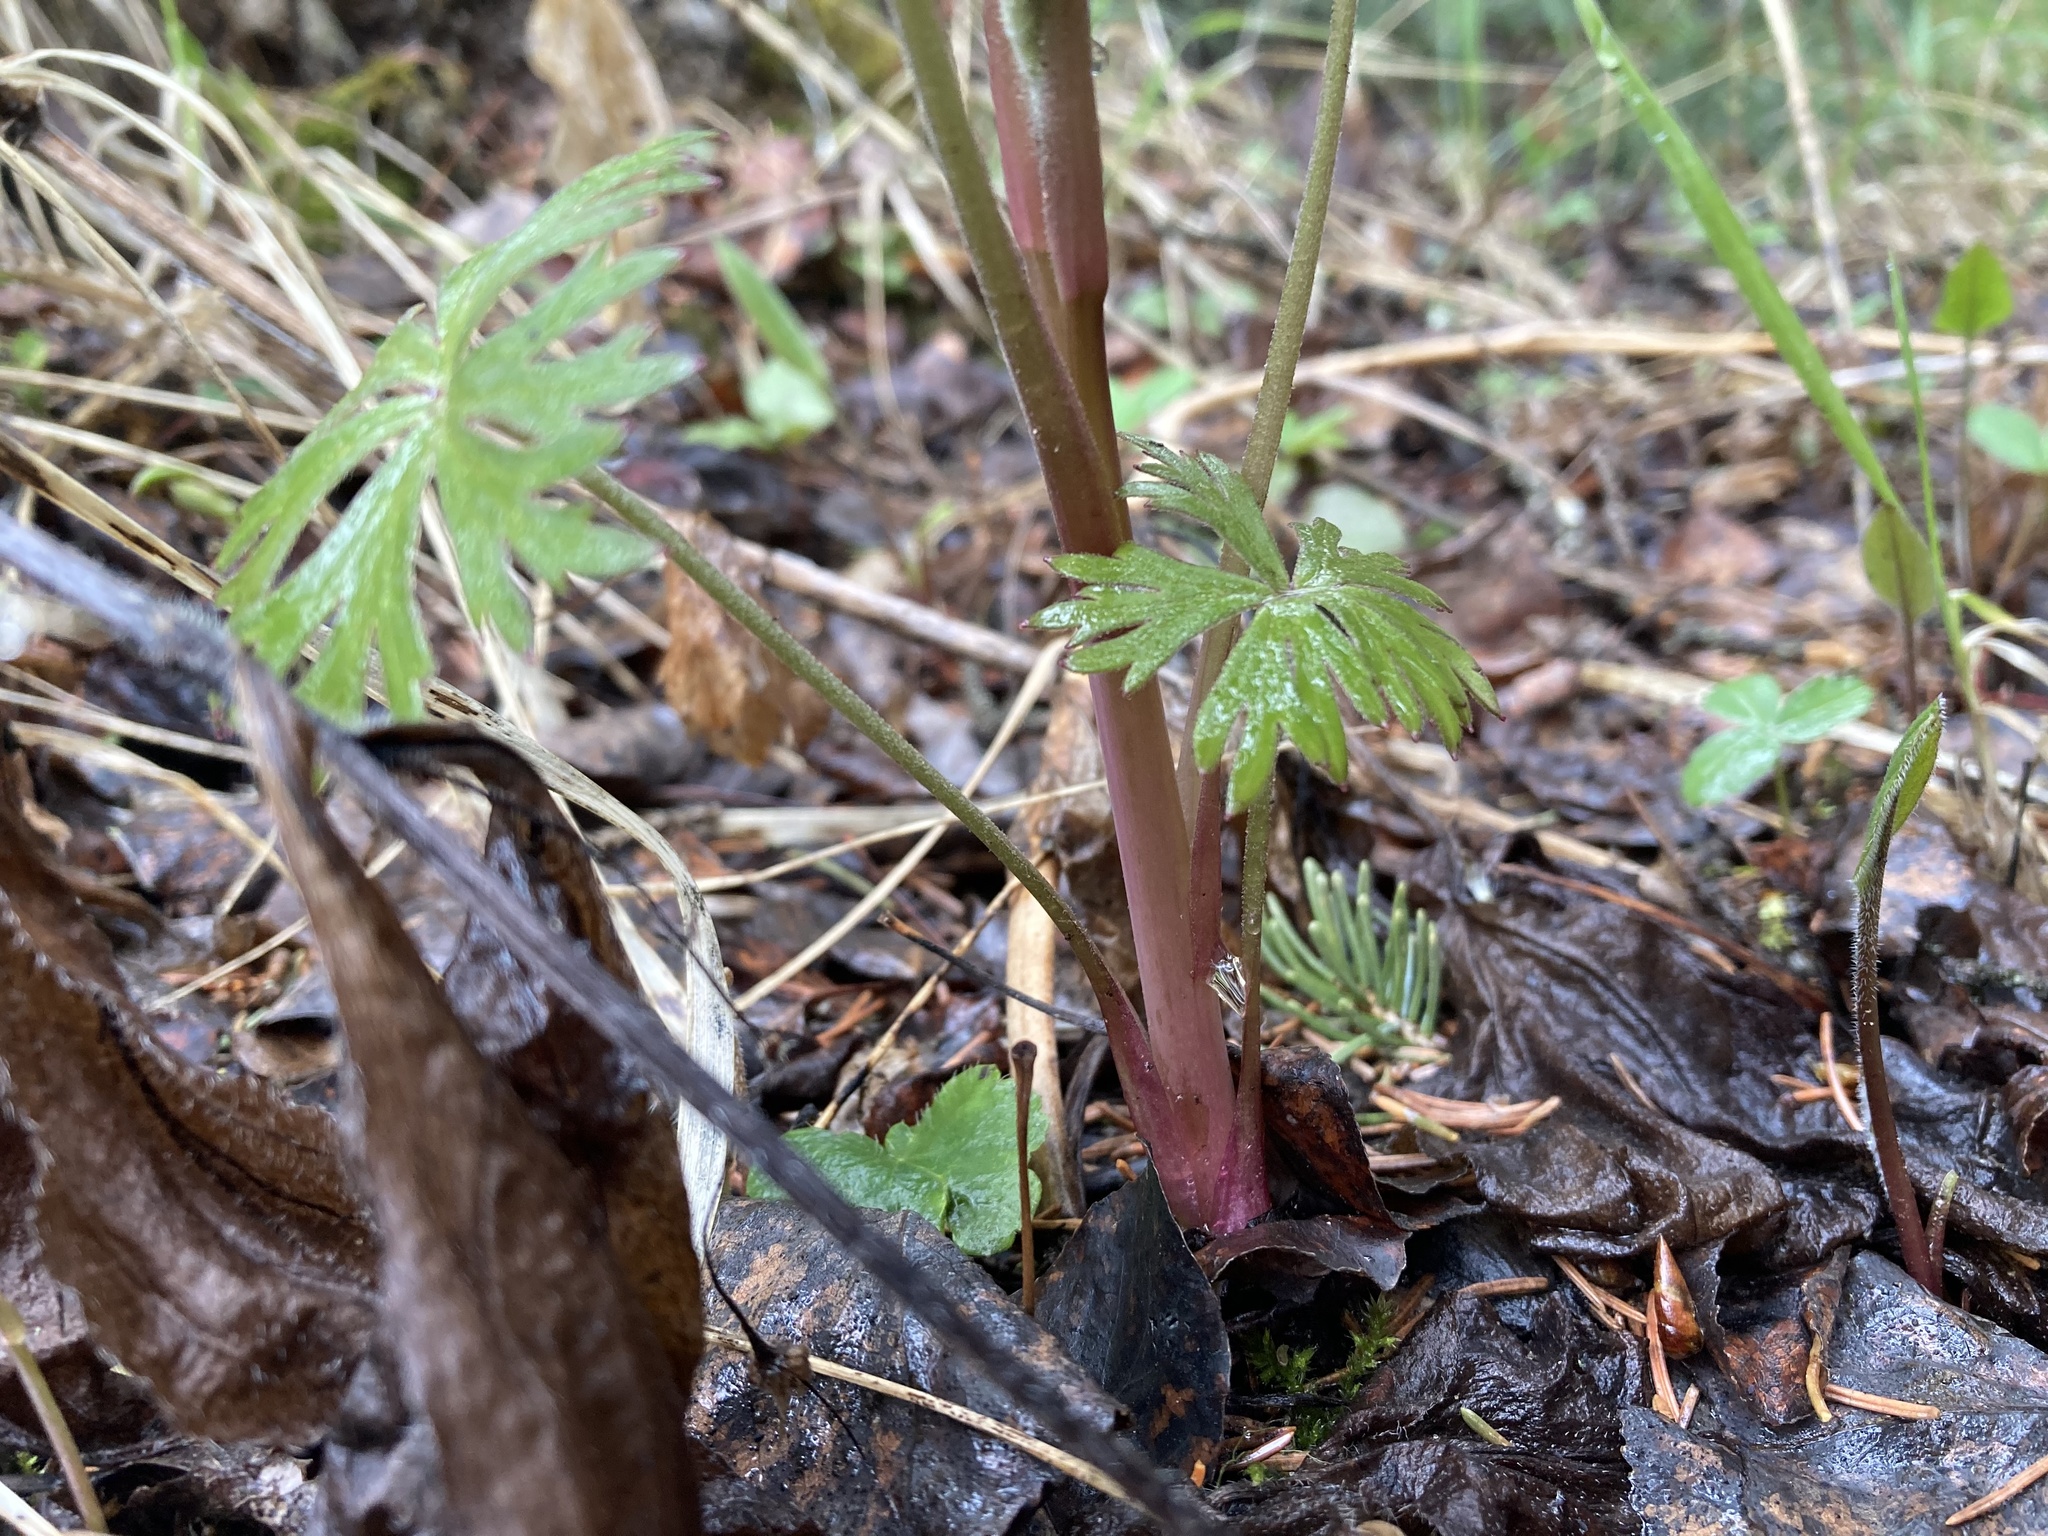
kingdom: Plantae
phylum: Tracheophyta
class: Magnoliopsida
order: Ranunculales
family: Ranunculaceae
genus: Aconitum
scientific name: Aconitum delphiniifolium
